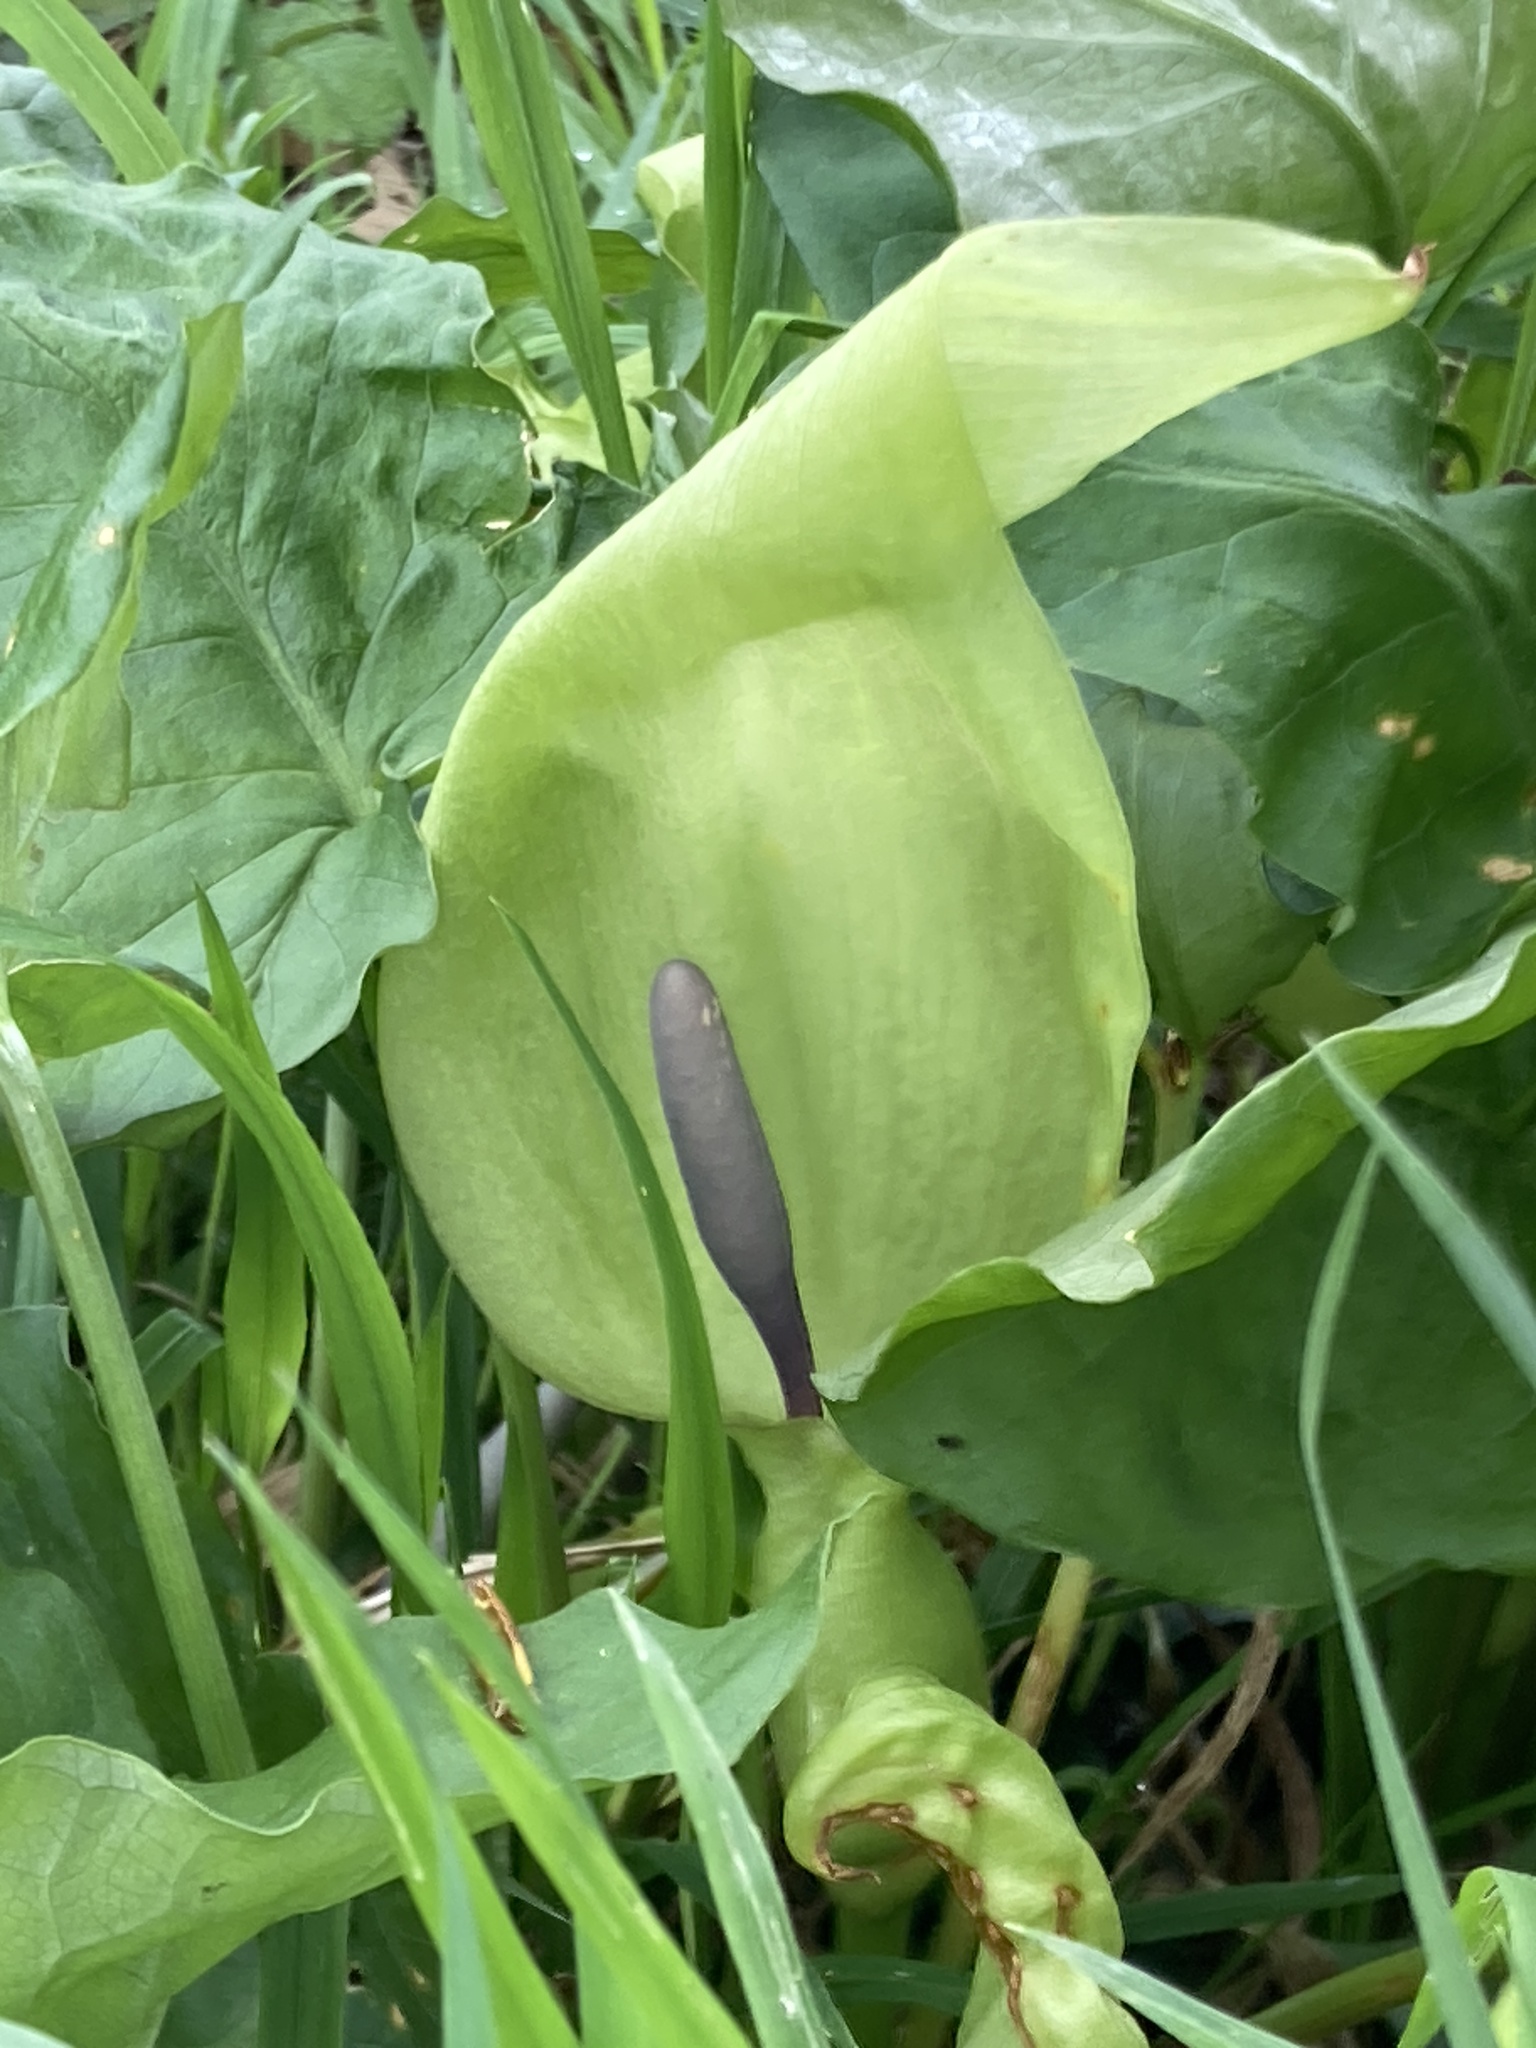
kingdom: Plantae
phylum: Tracheophyta
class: Liliopsida
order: Alismatales
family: Araceae
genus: Arum
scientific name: Arum maculatum
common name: Lords-and-ladies
